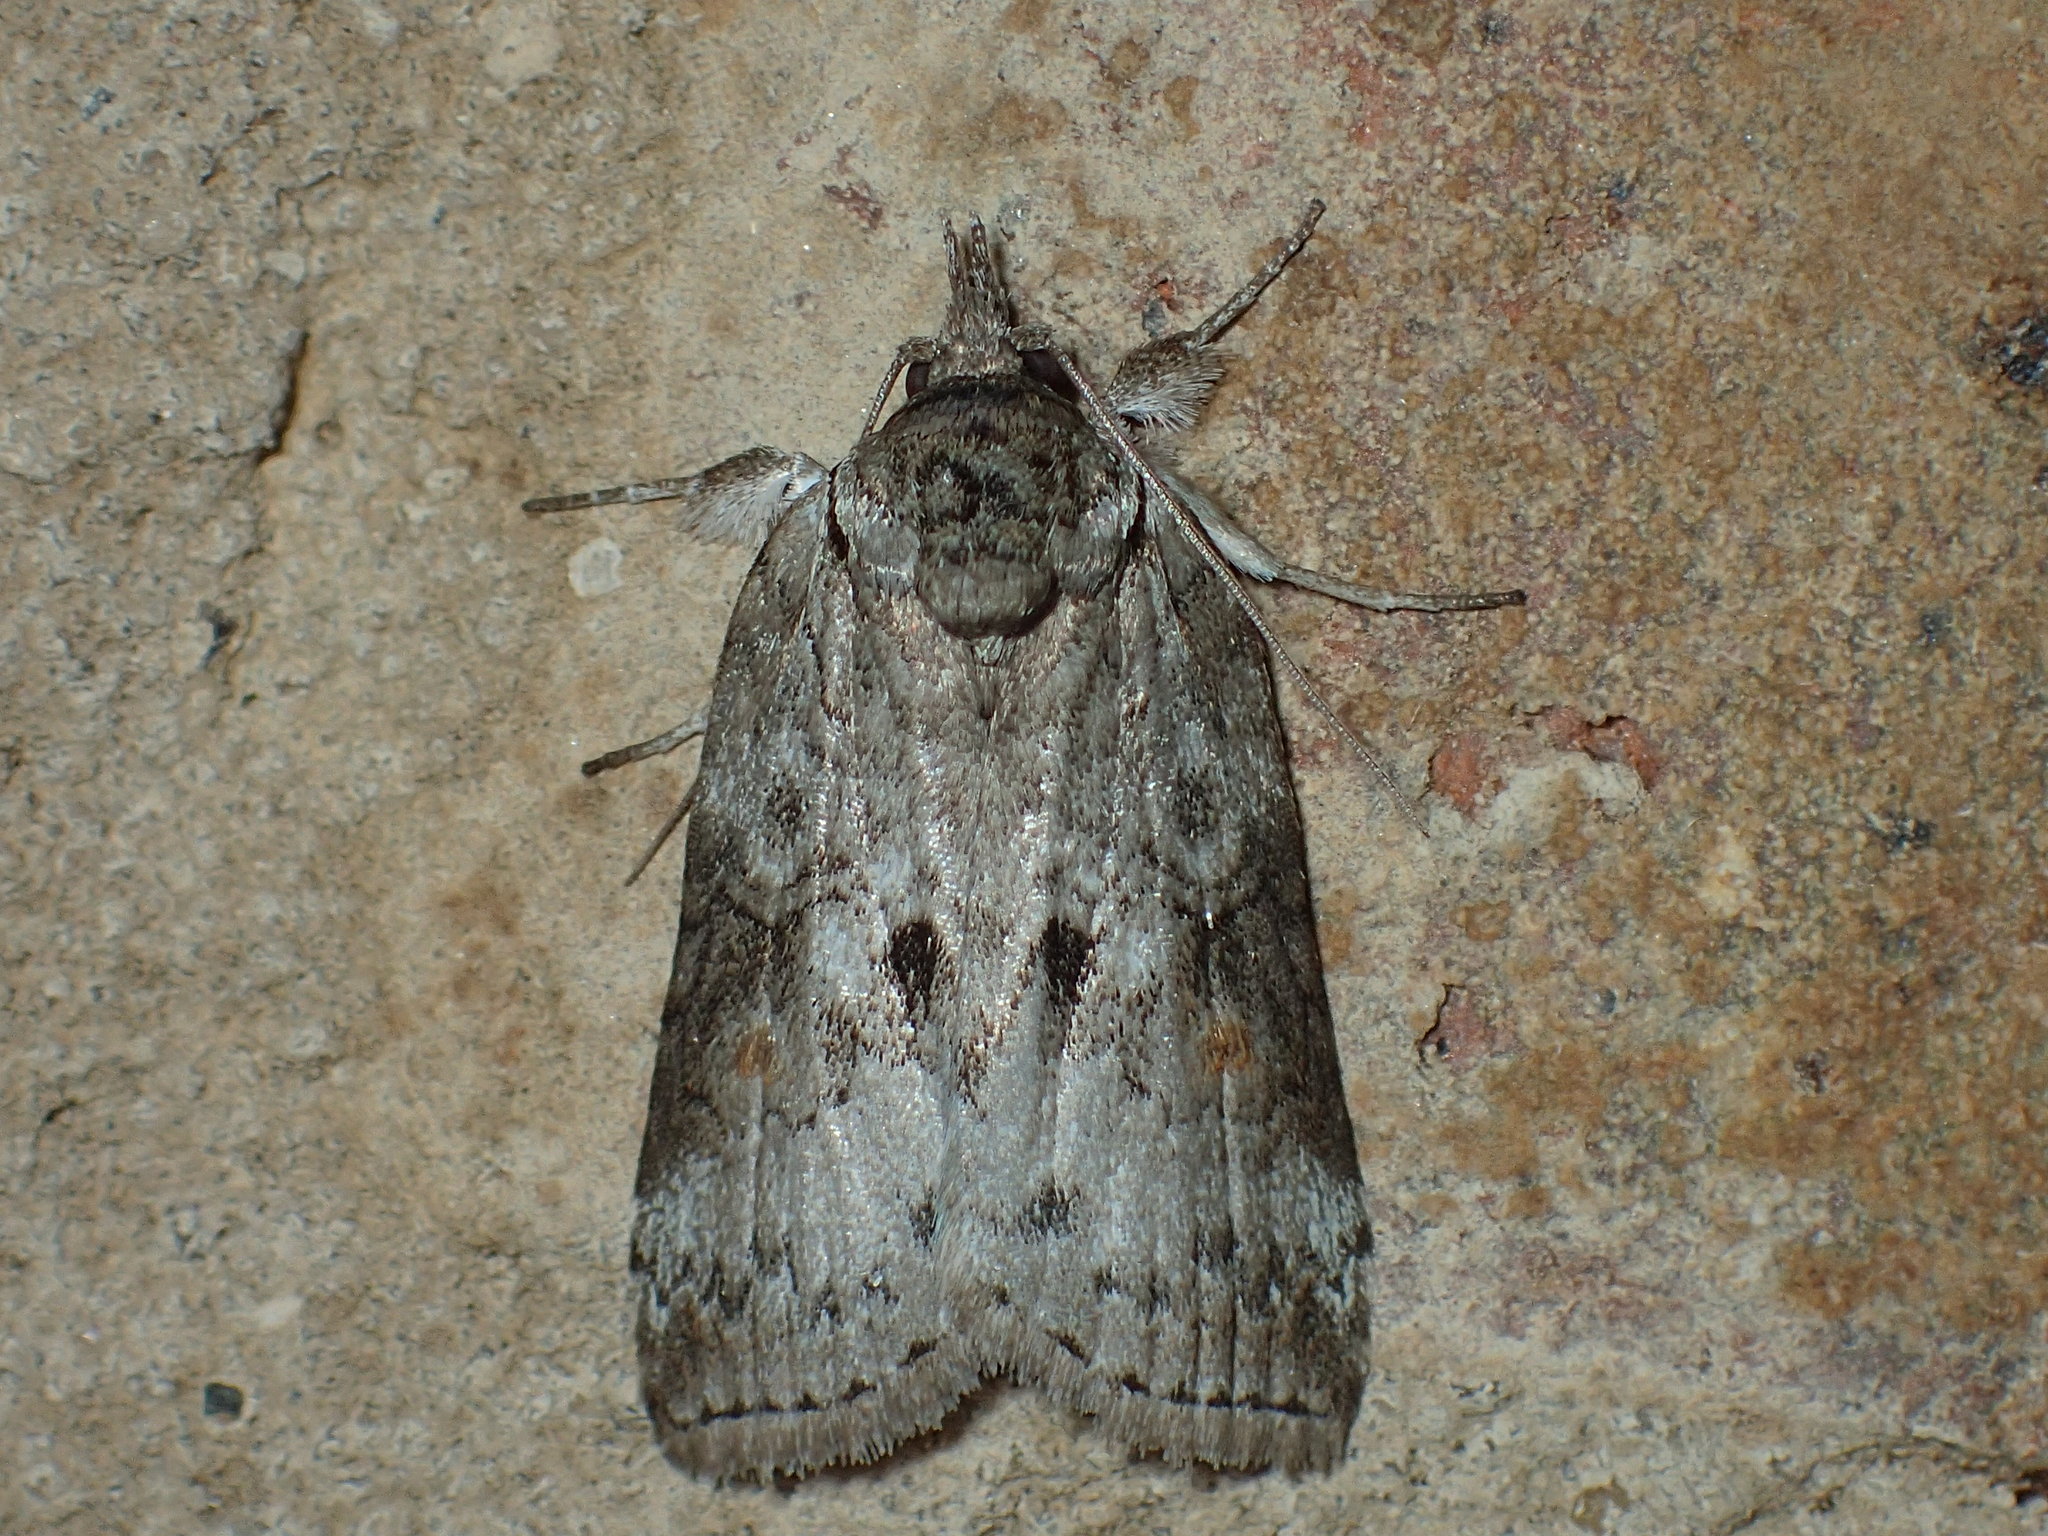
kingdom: Animalia
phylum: Arthropoda
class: Insecta
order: Lepidoptera
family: Nolidae
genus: Nycteola
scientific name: Nycteola metaspilella
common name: Forgotten frigid owlet
